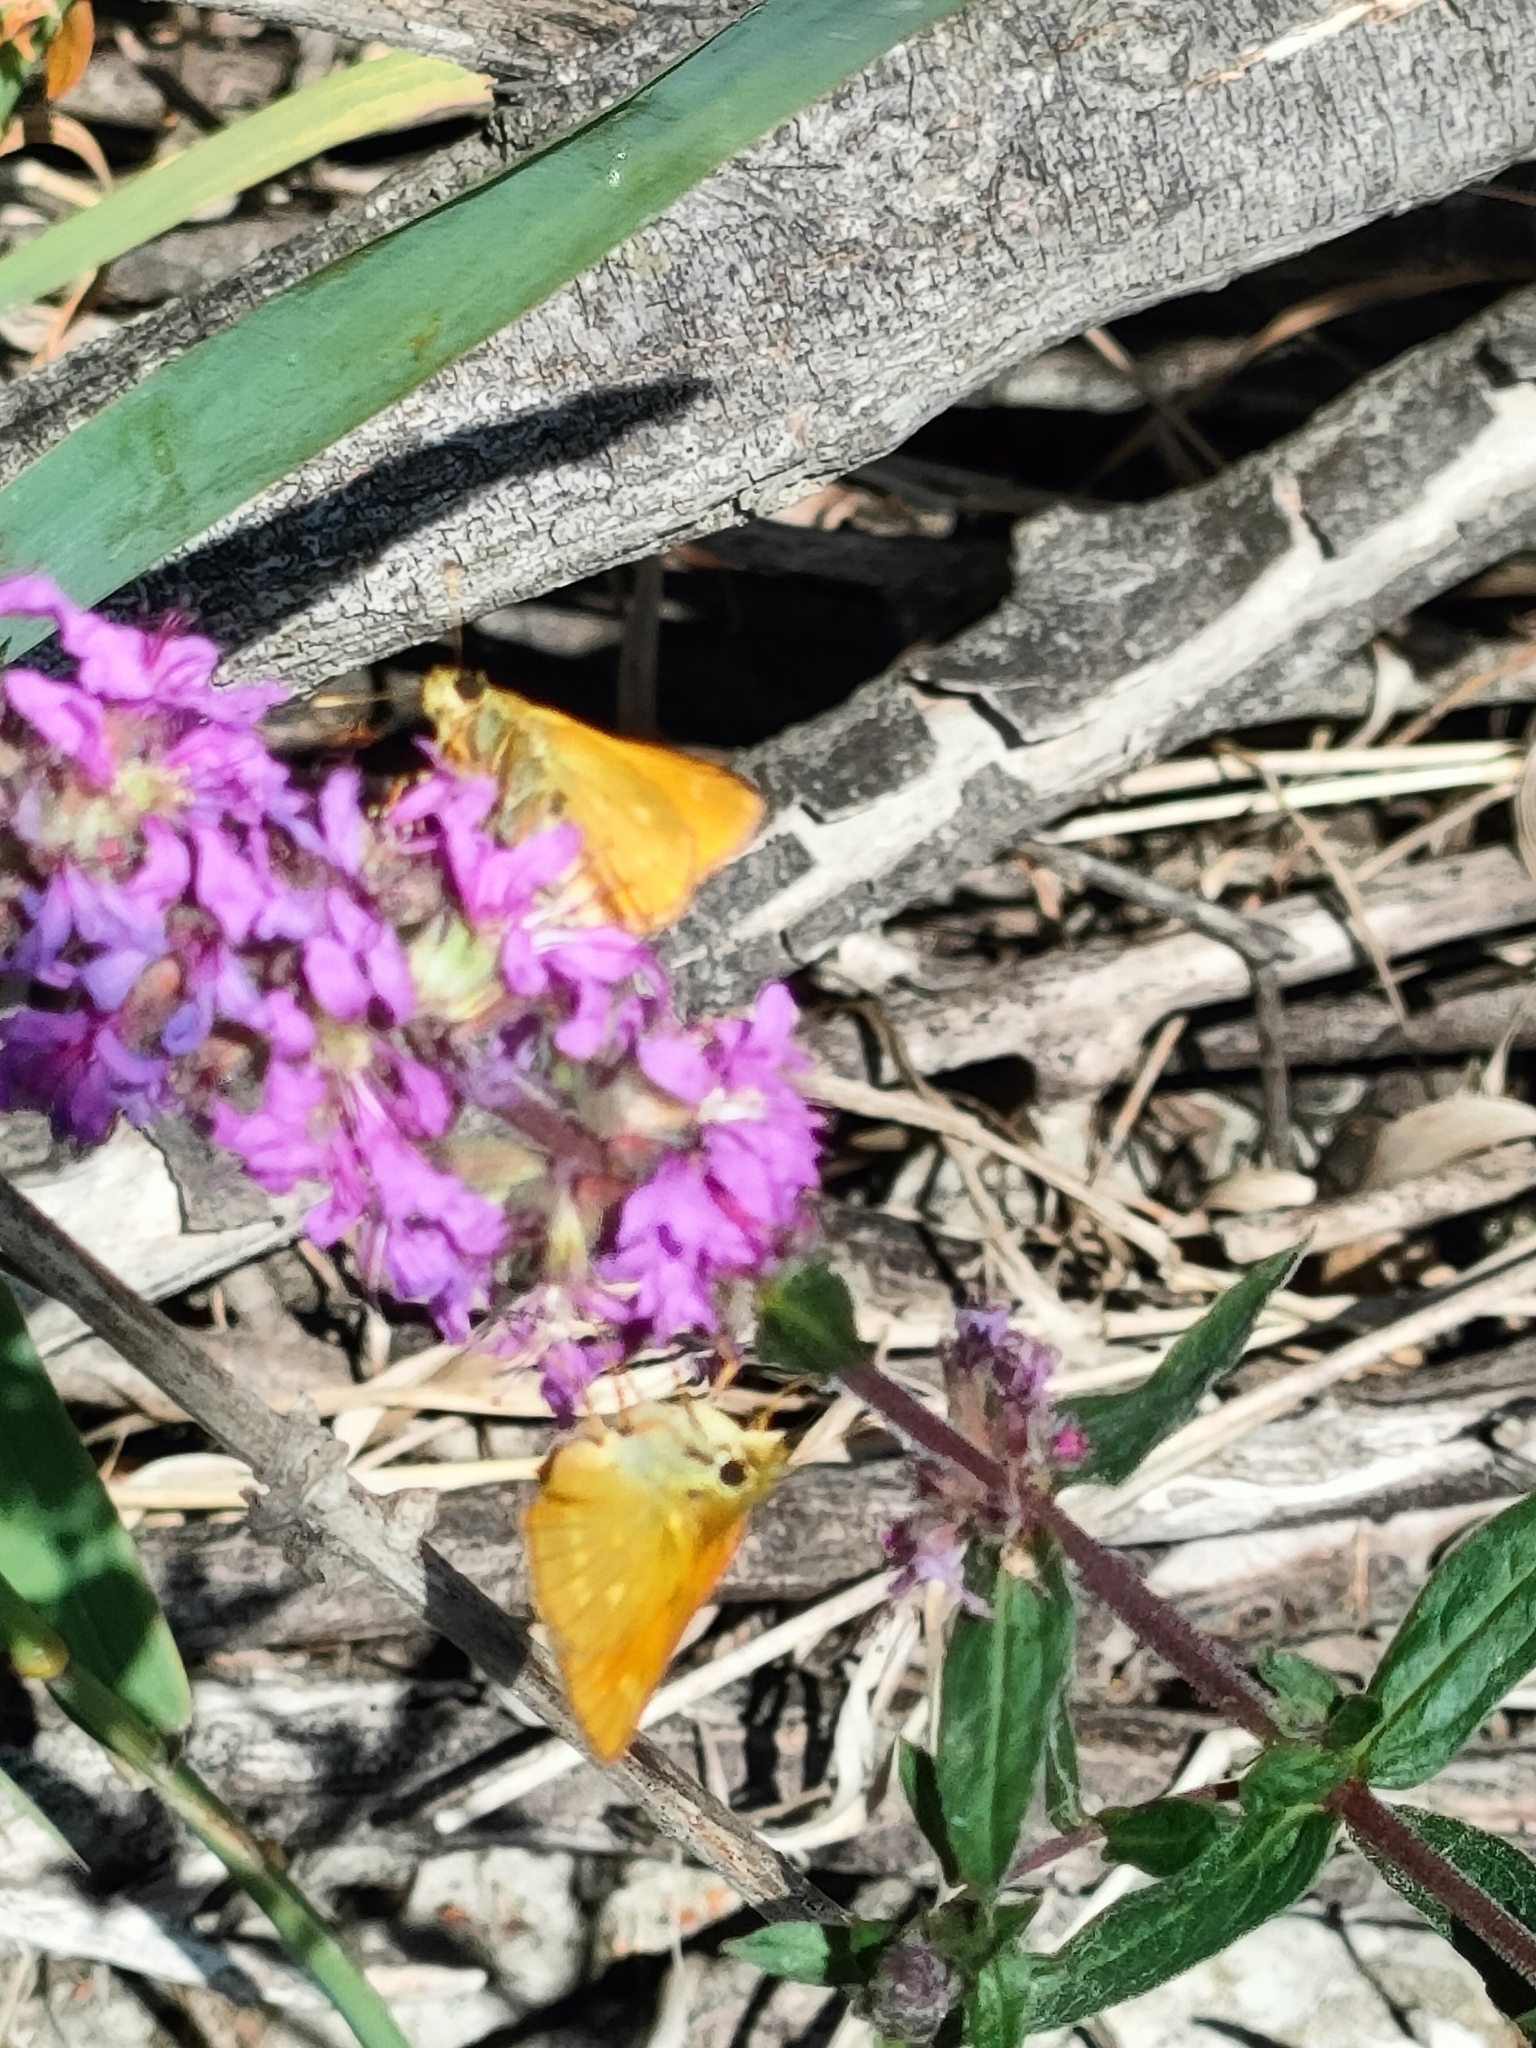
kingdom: Animalia
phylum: Arthropoda
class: Insecta
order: Lepidoptera
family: Hesperiidae
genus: Ochlodes
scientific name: Ochlodes venata
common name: Large skipper
